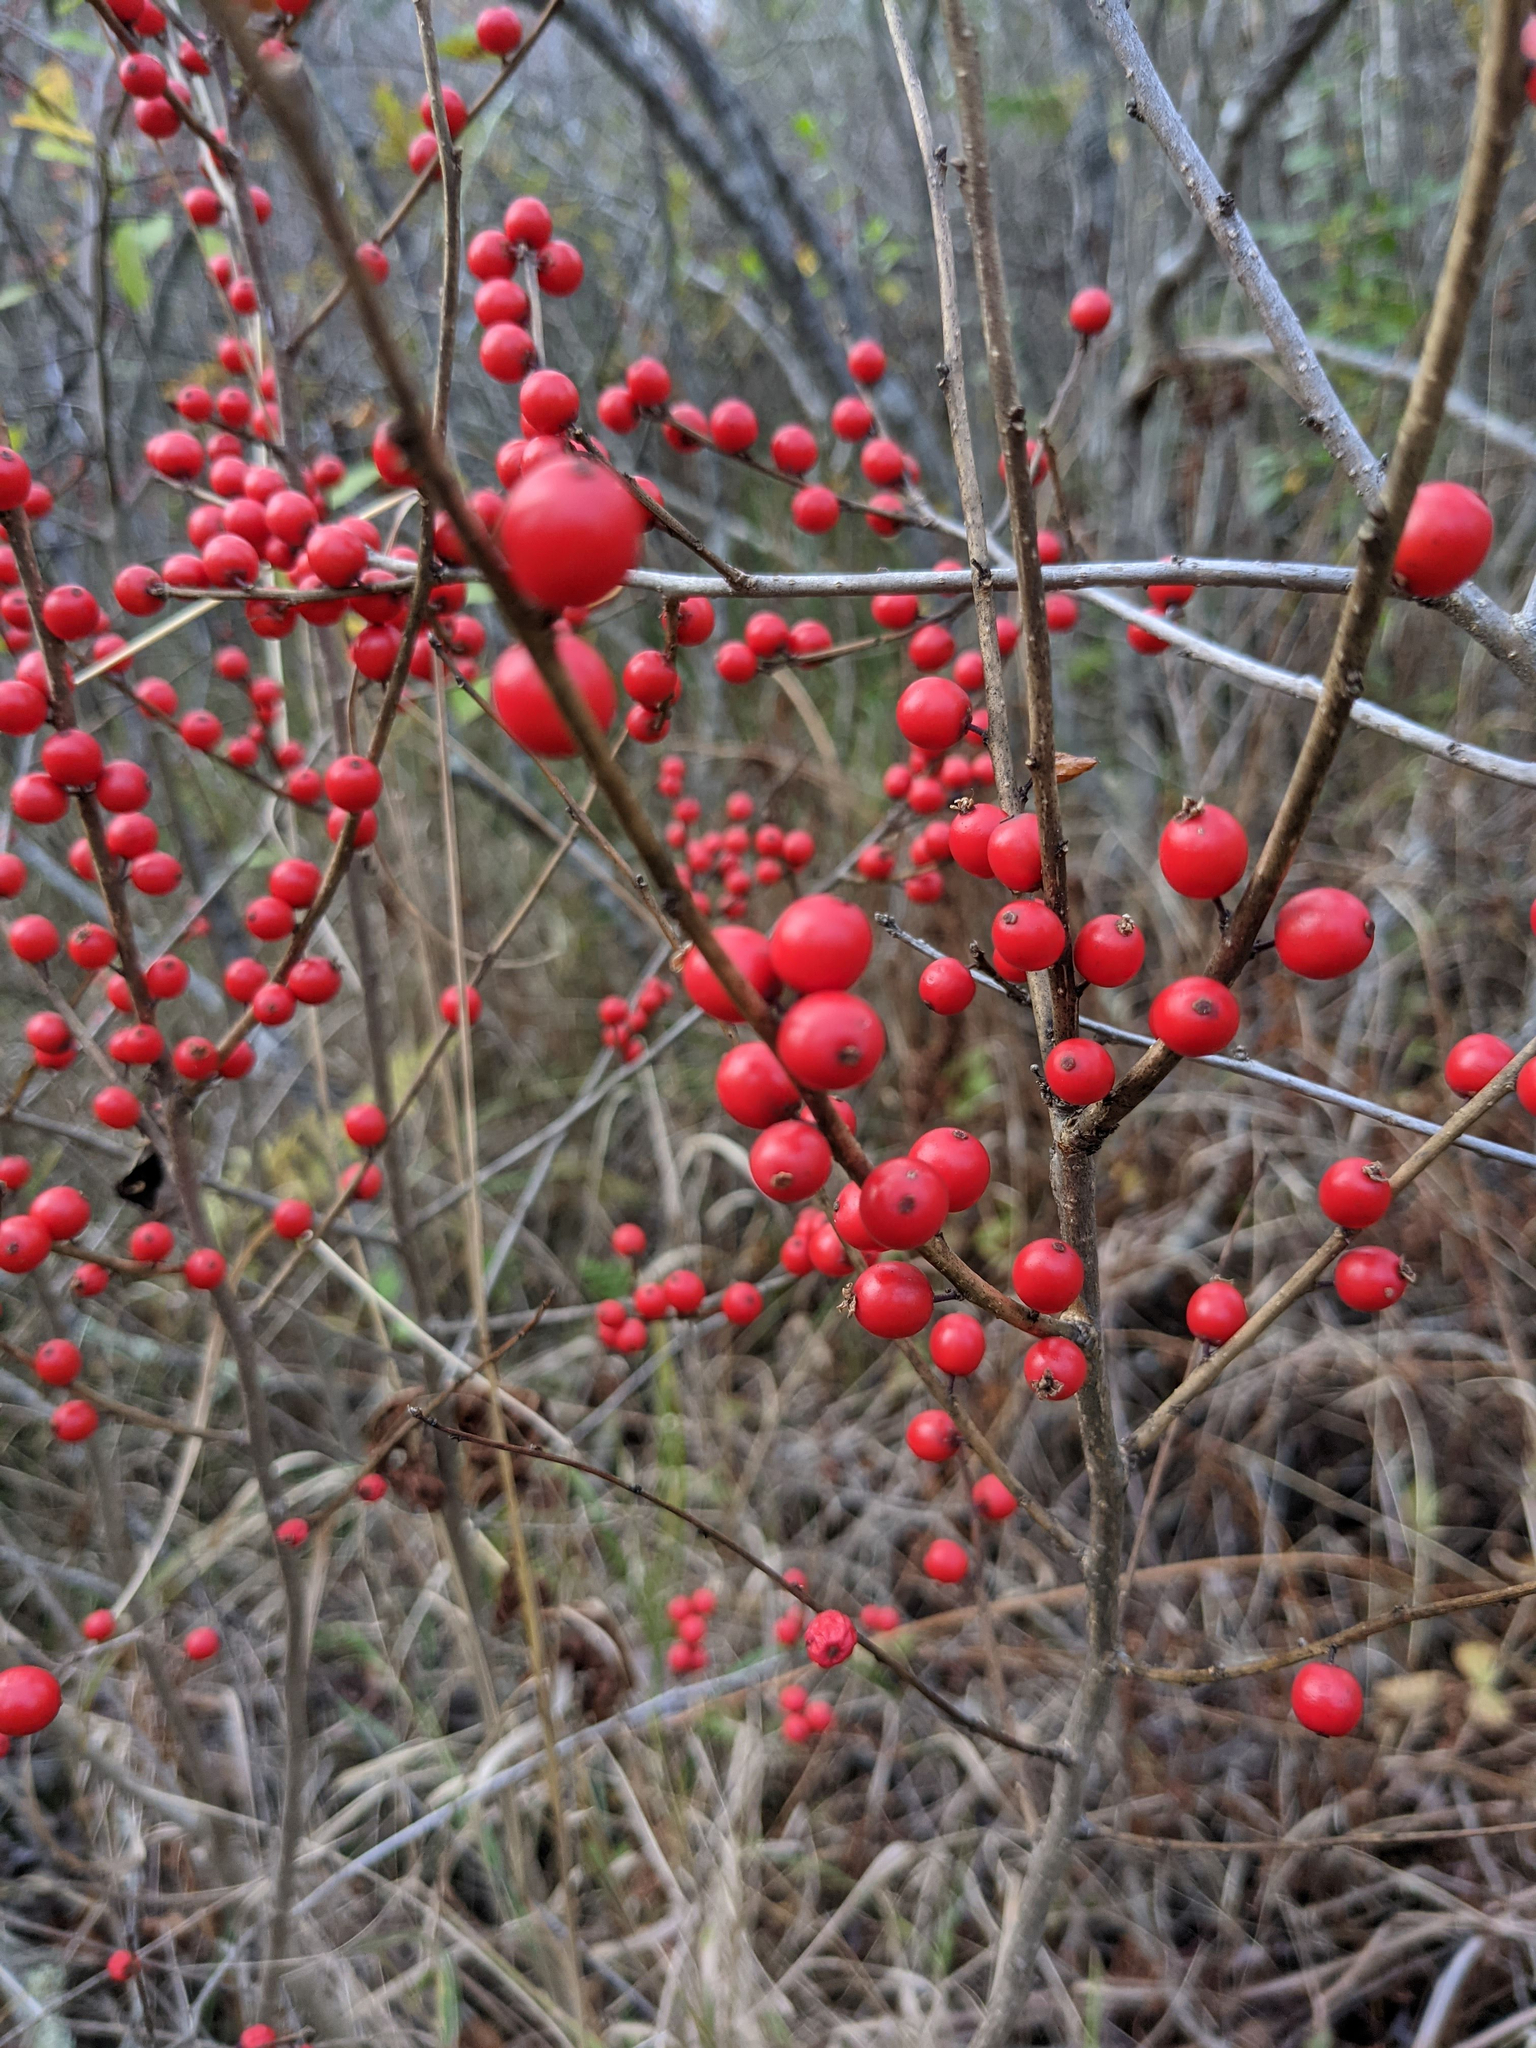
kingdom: Plantae
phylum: Tracheophyta
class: Magnoliopsida
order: Aquifoliales
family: Aquifoliaceae
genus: Ilex
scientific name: Ilex verticillata
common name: Virginia winterberry
